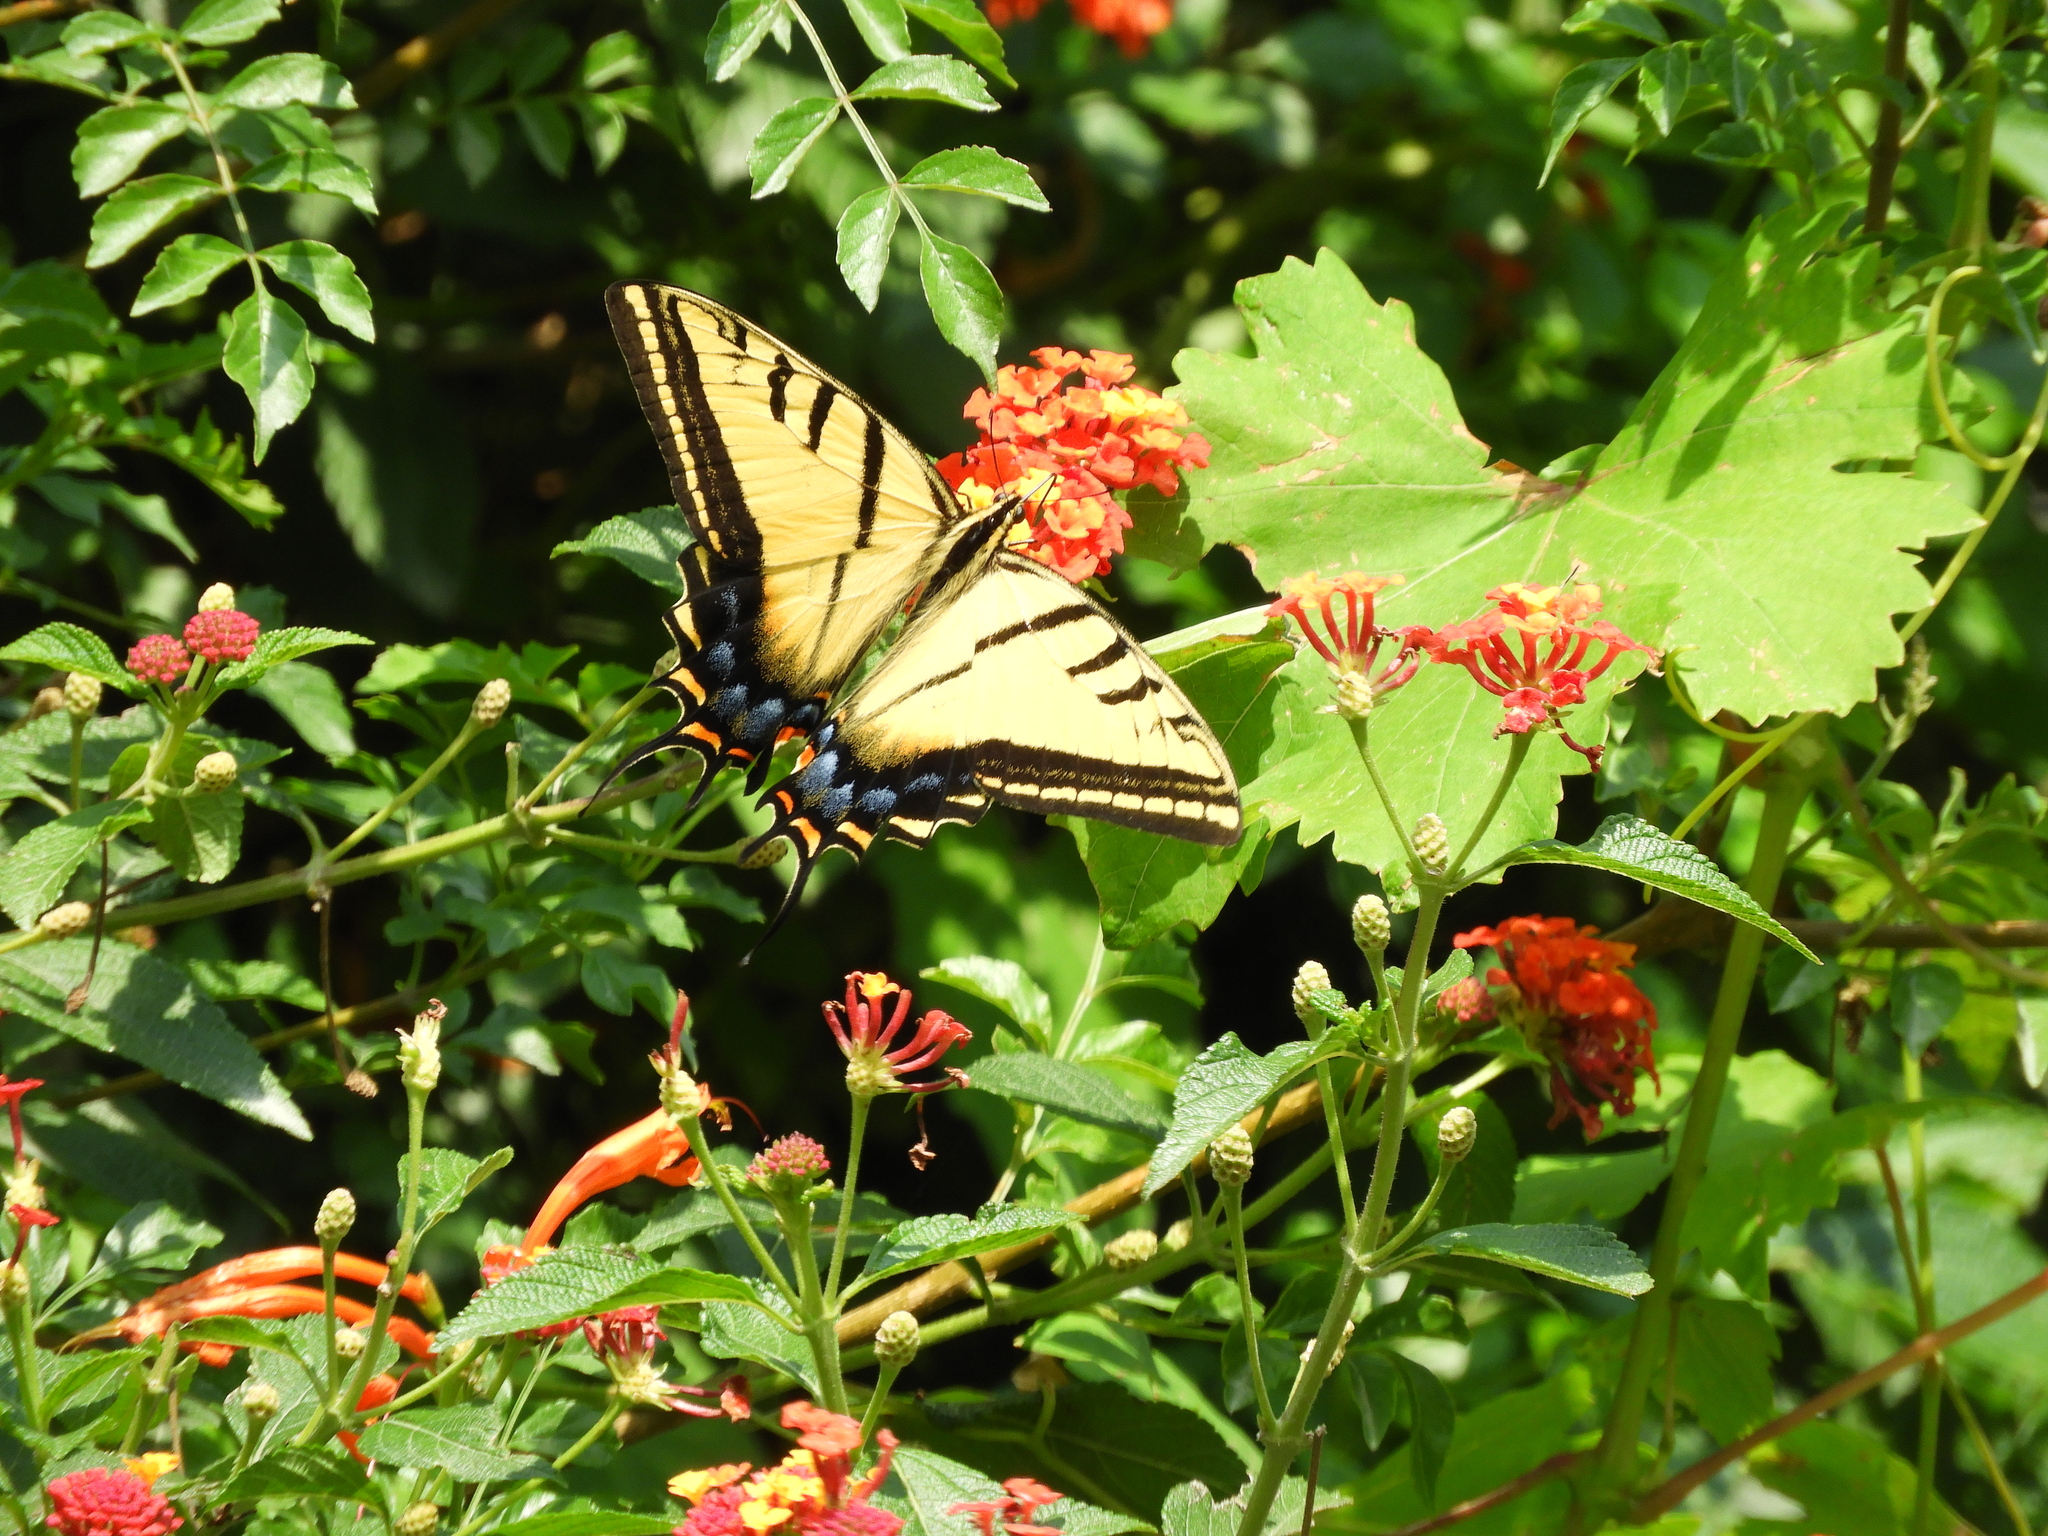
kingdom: Animalia
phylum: Arthropoda
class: Insecta
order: Lepidoptera
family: Papilionidae
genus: Papilio
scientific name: Papilio multicaudata
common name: Two-tailed tiger swallowtail
